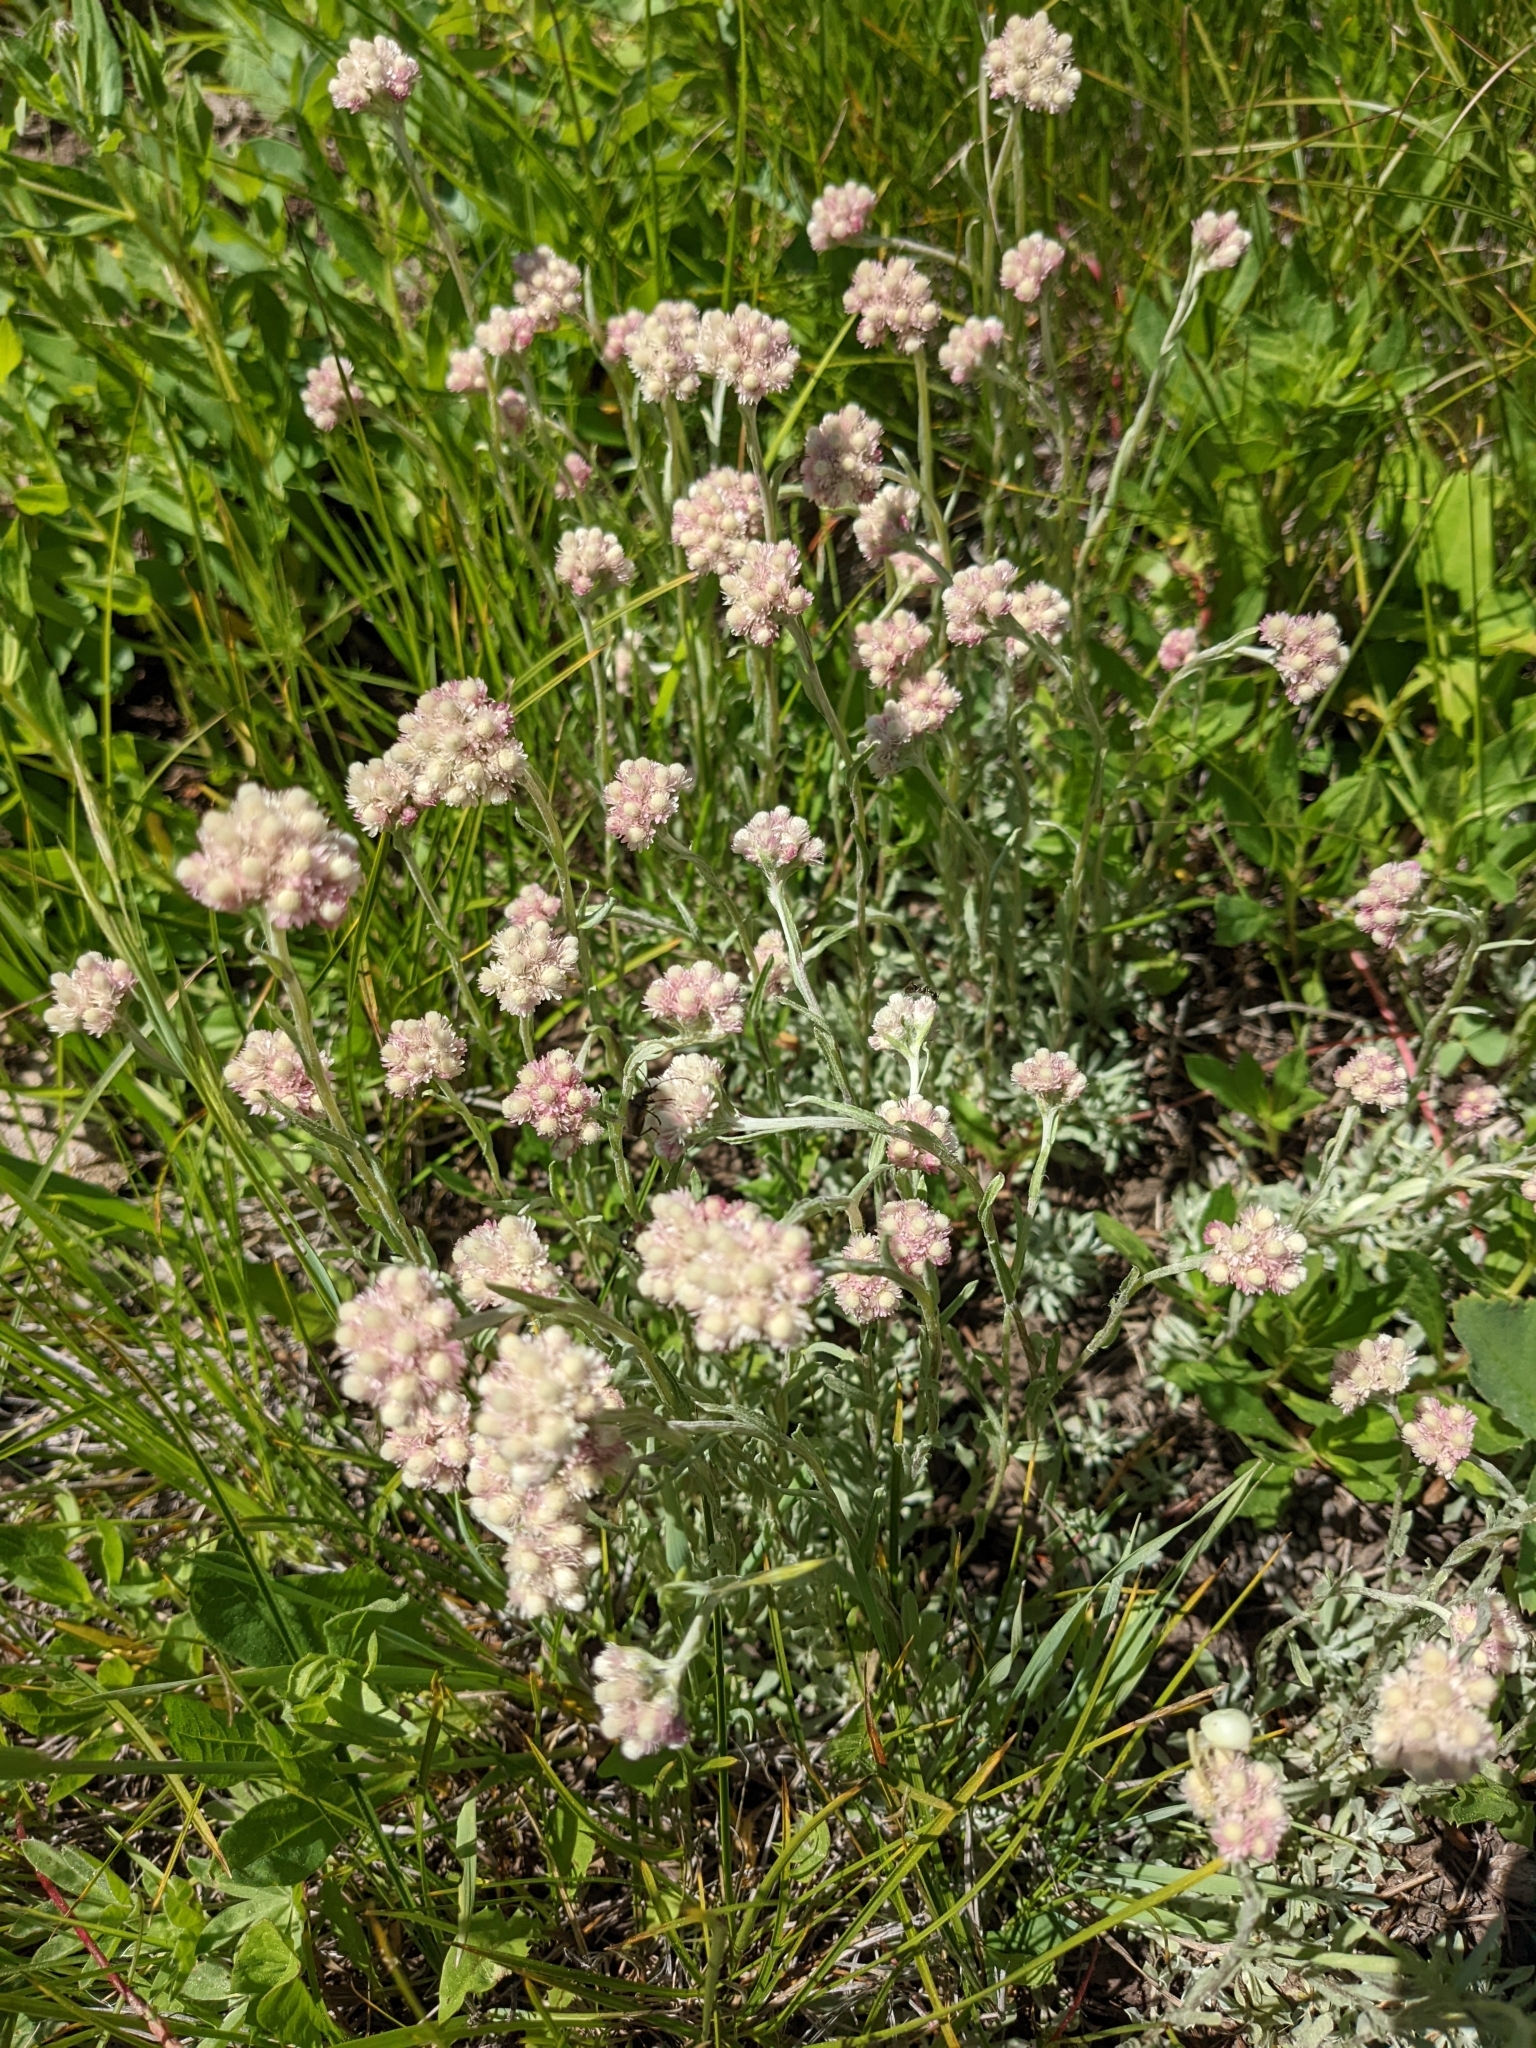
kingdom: Plantae
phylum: Tracheophyta
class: Magnoliopsida
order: Asterales
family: Asteraceae
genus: Antennaria
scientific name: Antennaria rosea
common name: Rosy pussytoes
